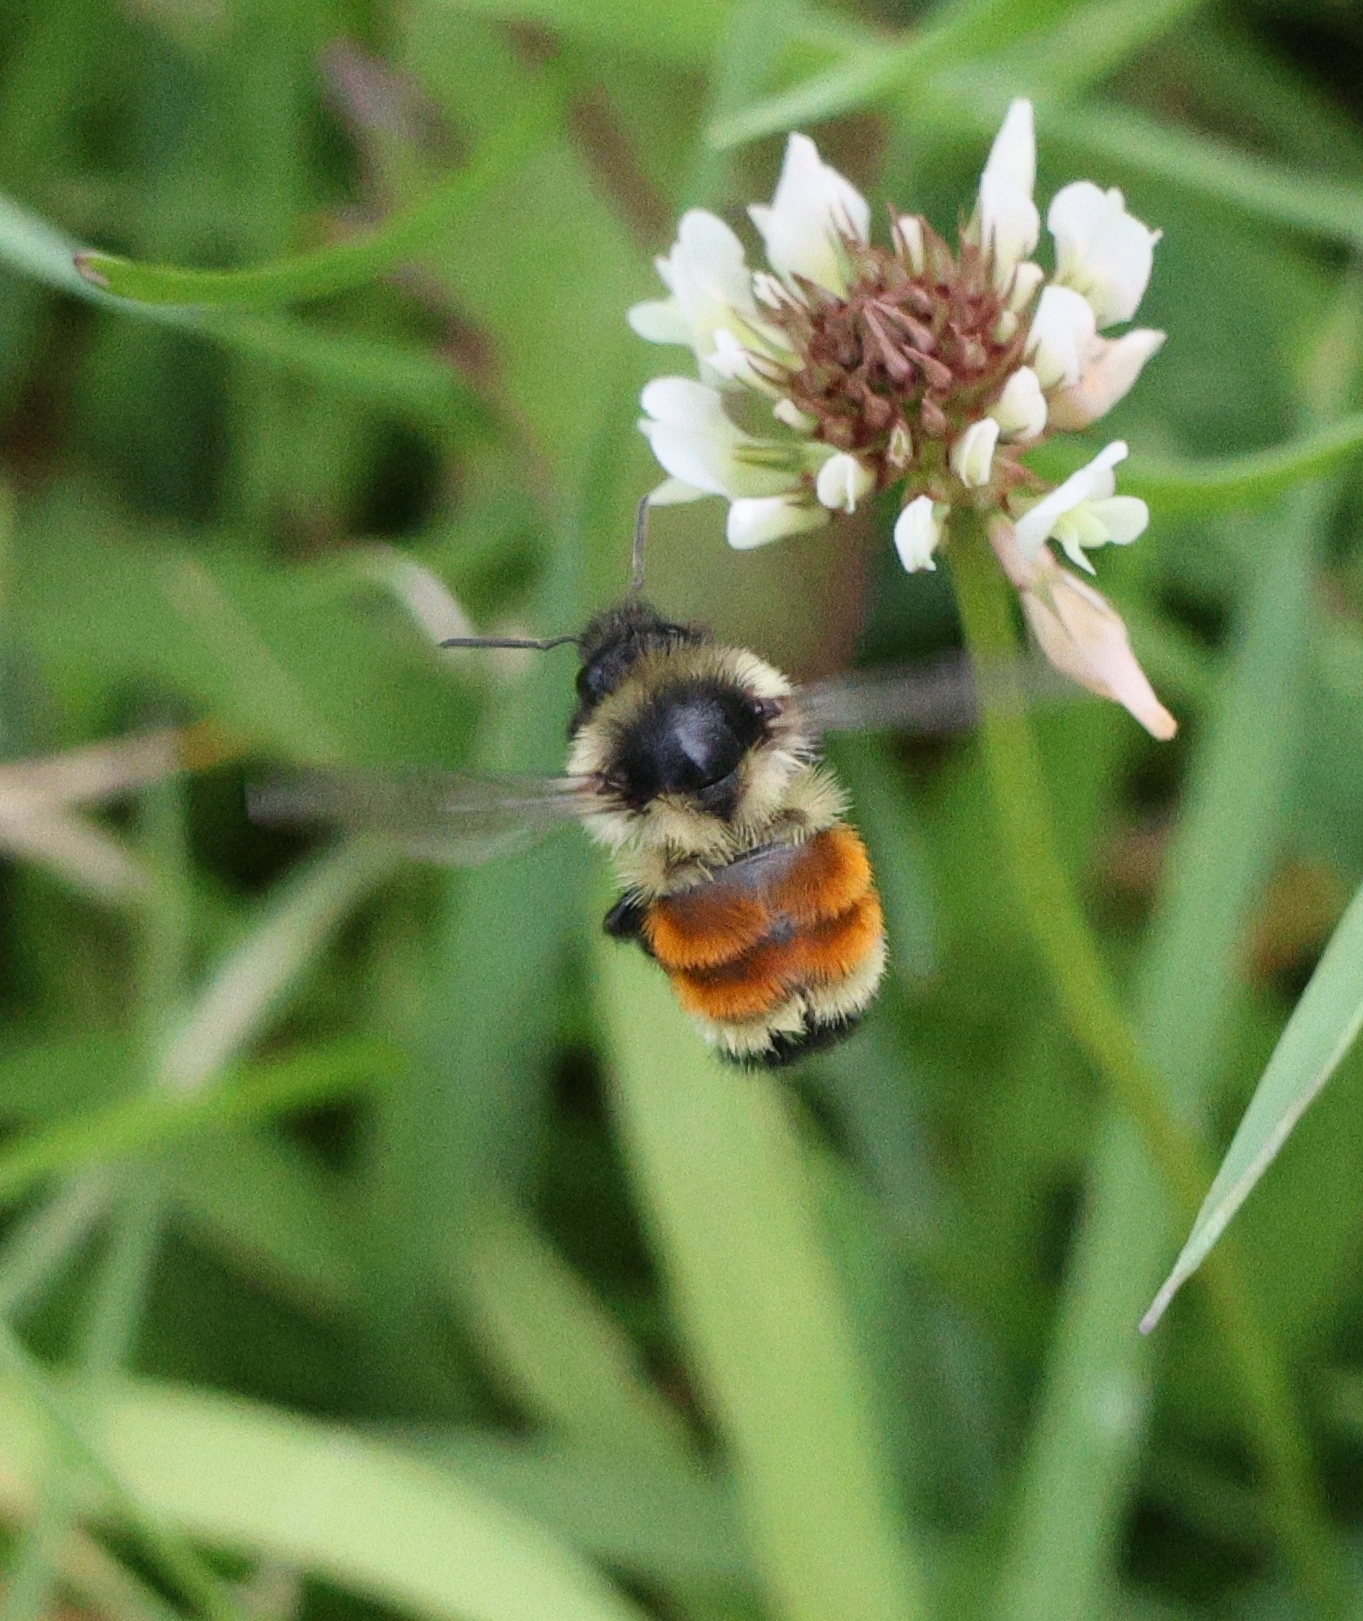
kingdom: Animalia
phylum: Arthropoda
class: Insecta
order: Hymenoptera
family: Apidae
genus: Bombus
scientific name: Bombus ternarius
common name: Tri-colored bumble bee
